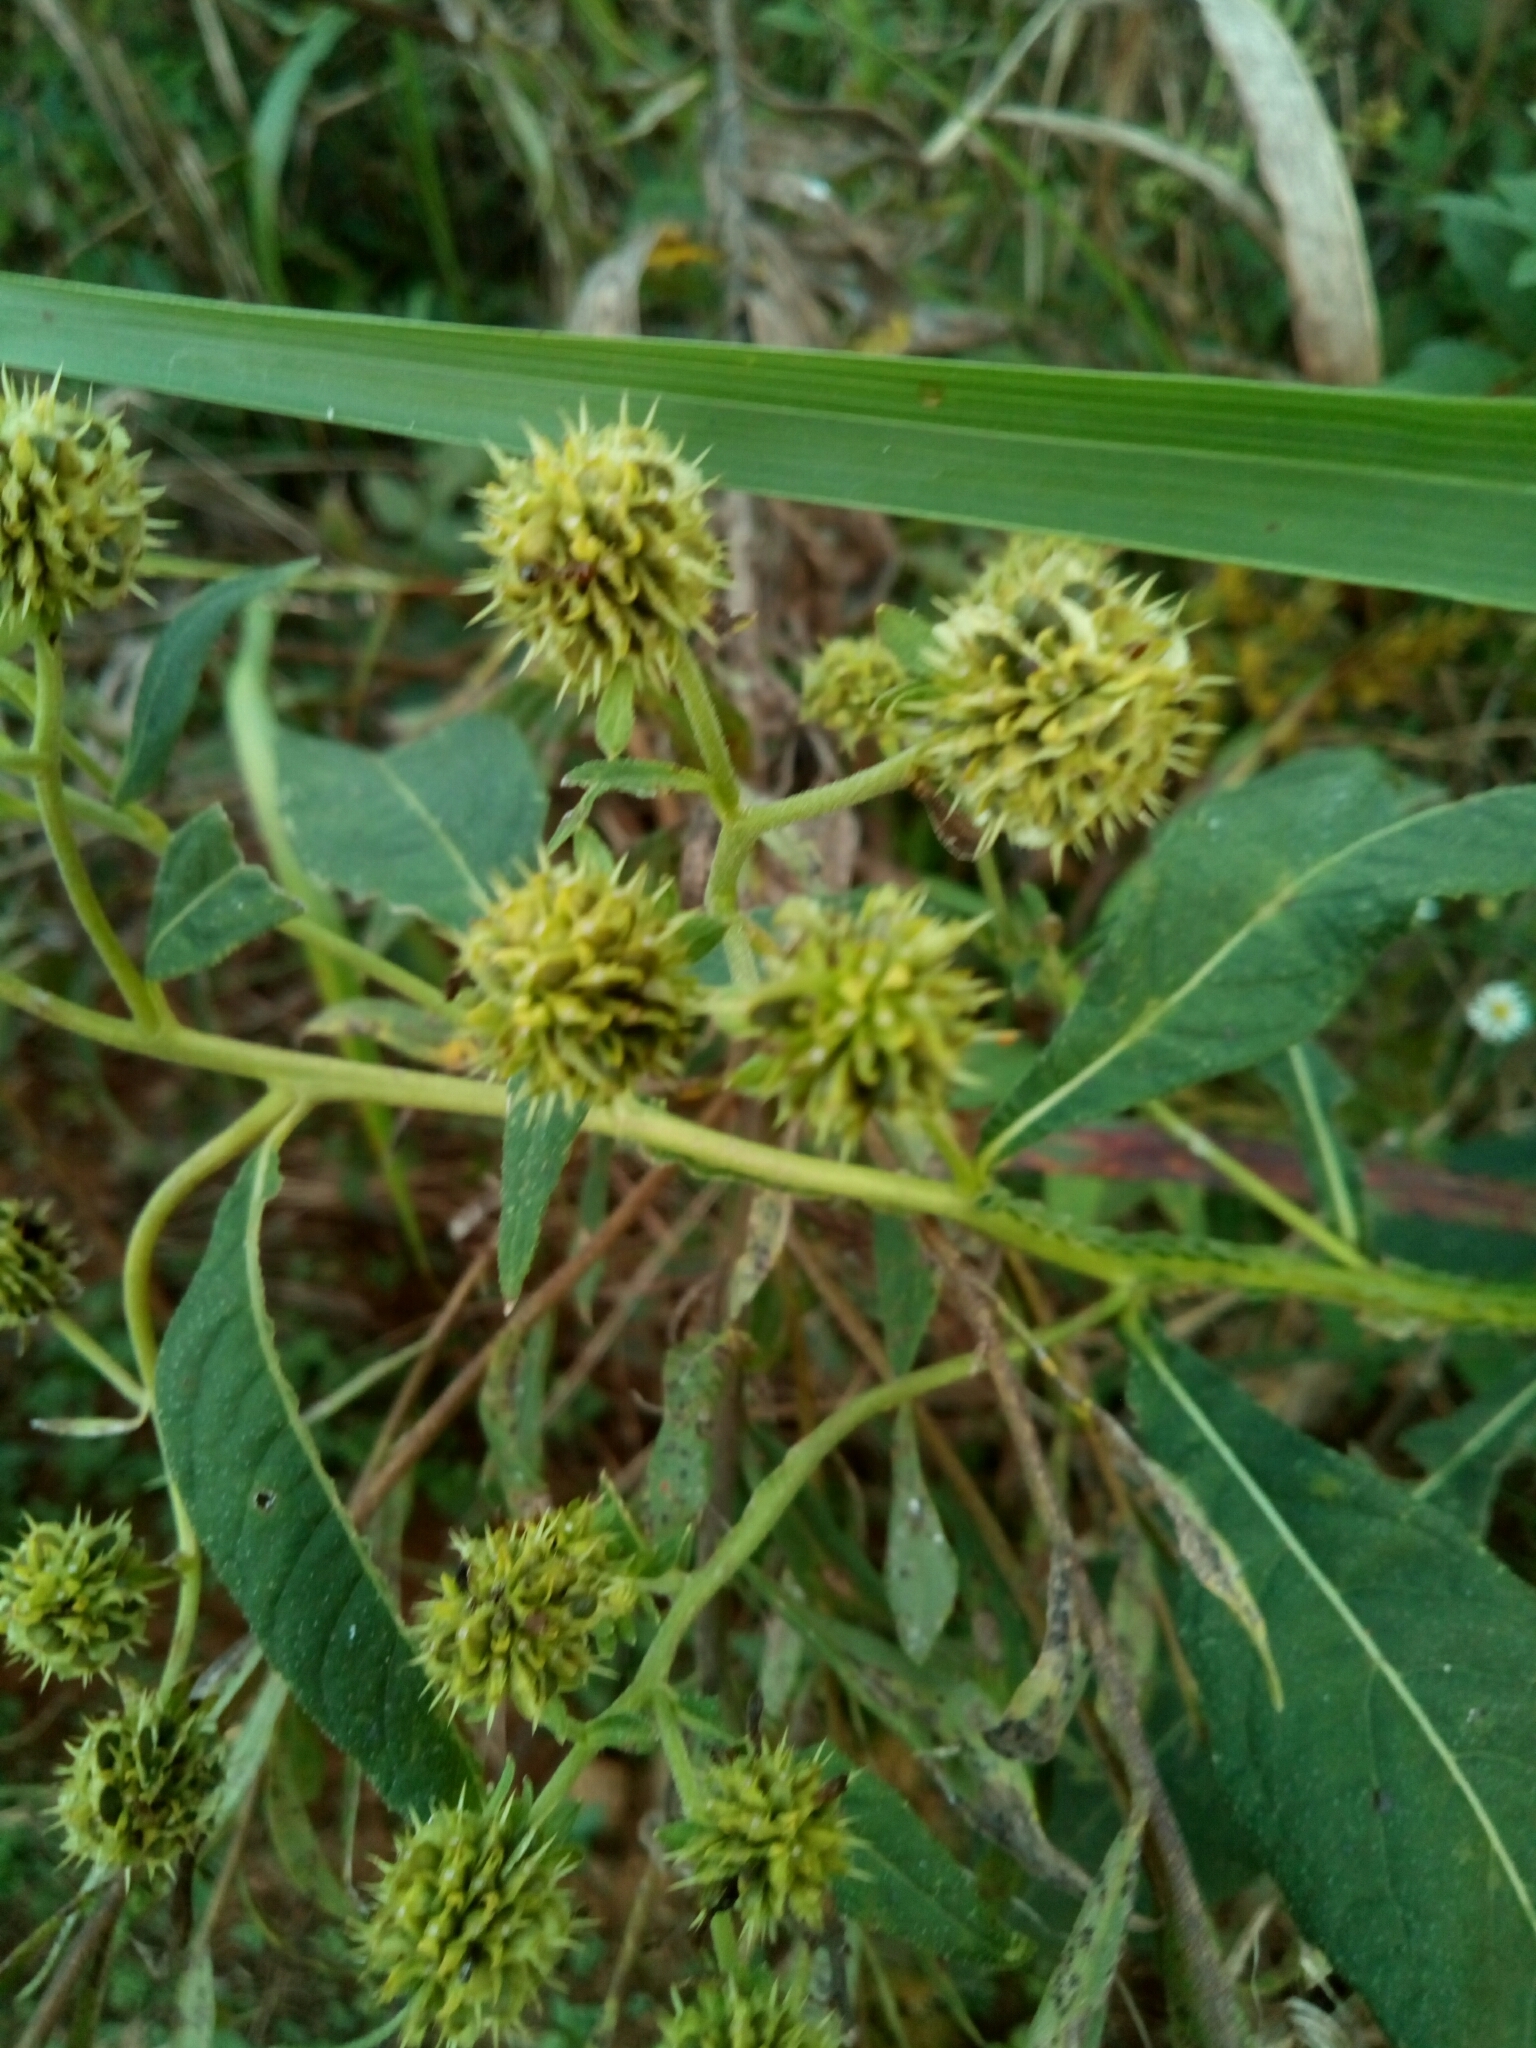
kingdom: Plantae
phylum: Tracheophyta
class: Magnoliopsida
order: Asterales
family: Asteraceae
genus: Verbesina
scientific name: Verbesina alternifolia
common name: Wingstem
